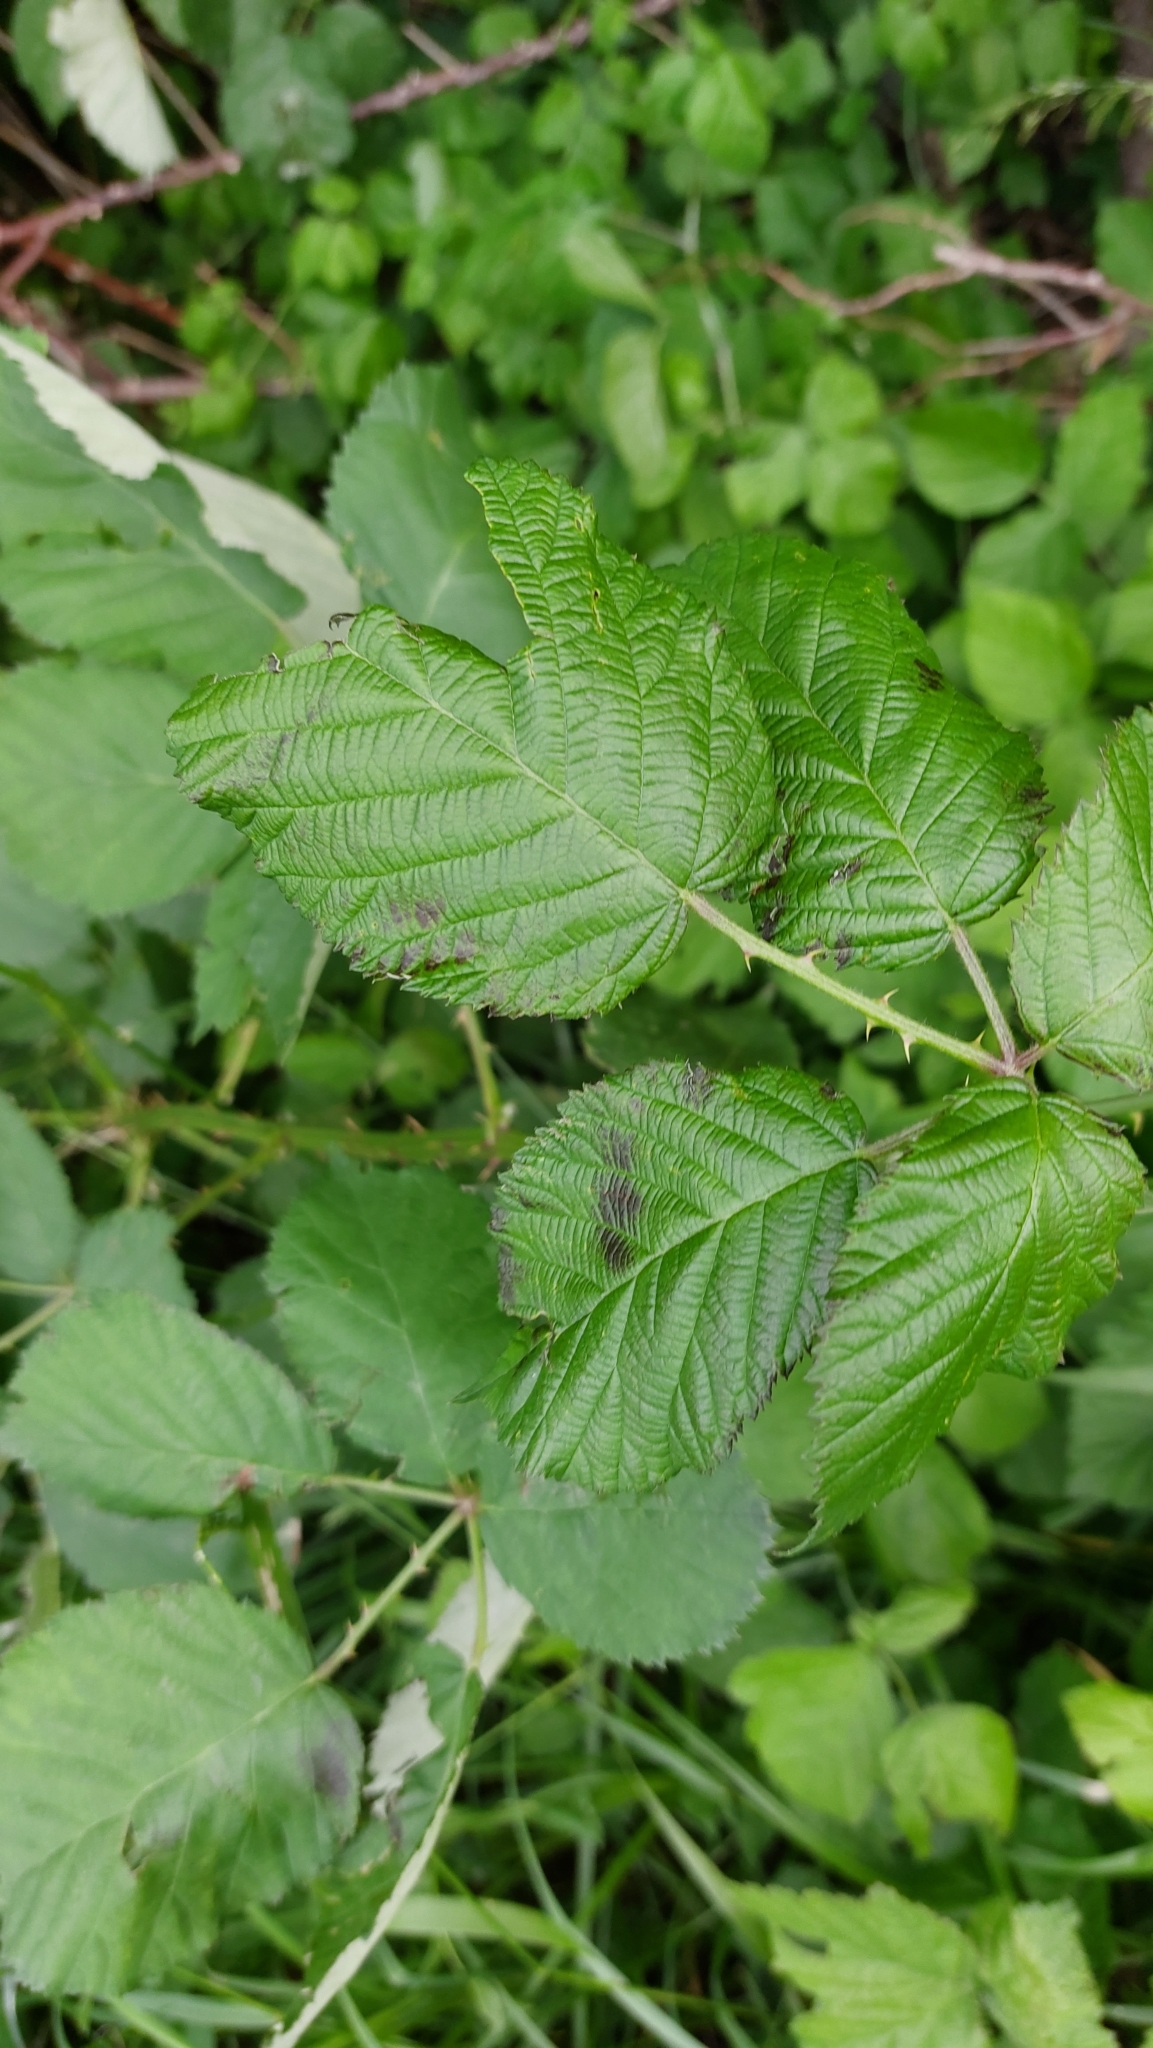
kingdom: Plantae
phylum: Tracheophyta
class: Magnoliopsida
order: Rosales
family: Rosaceae
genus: Rubus
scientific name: Rubus
